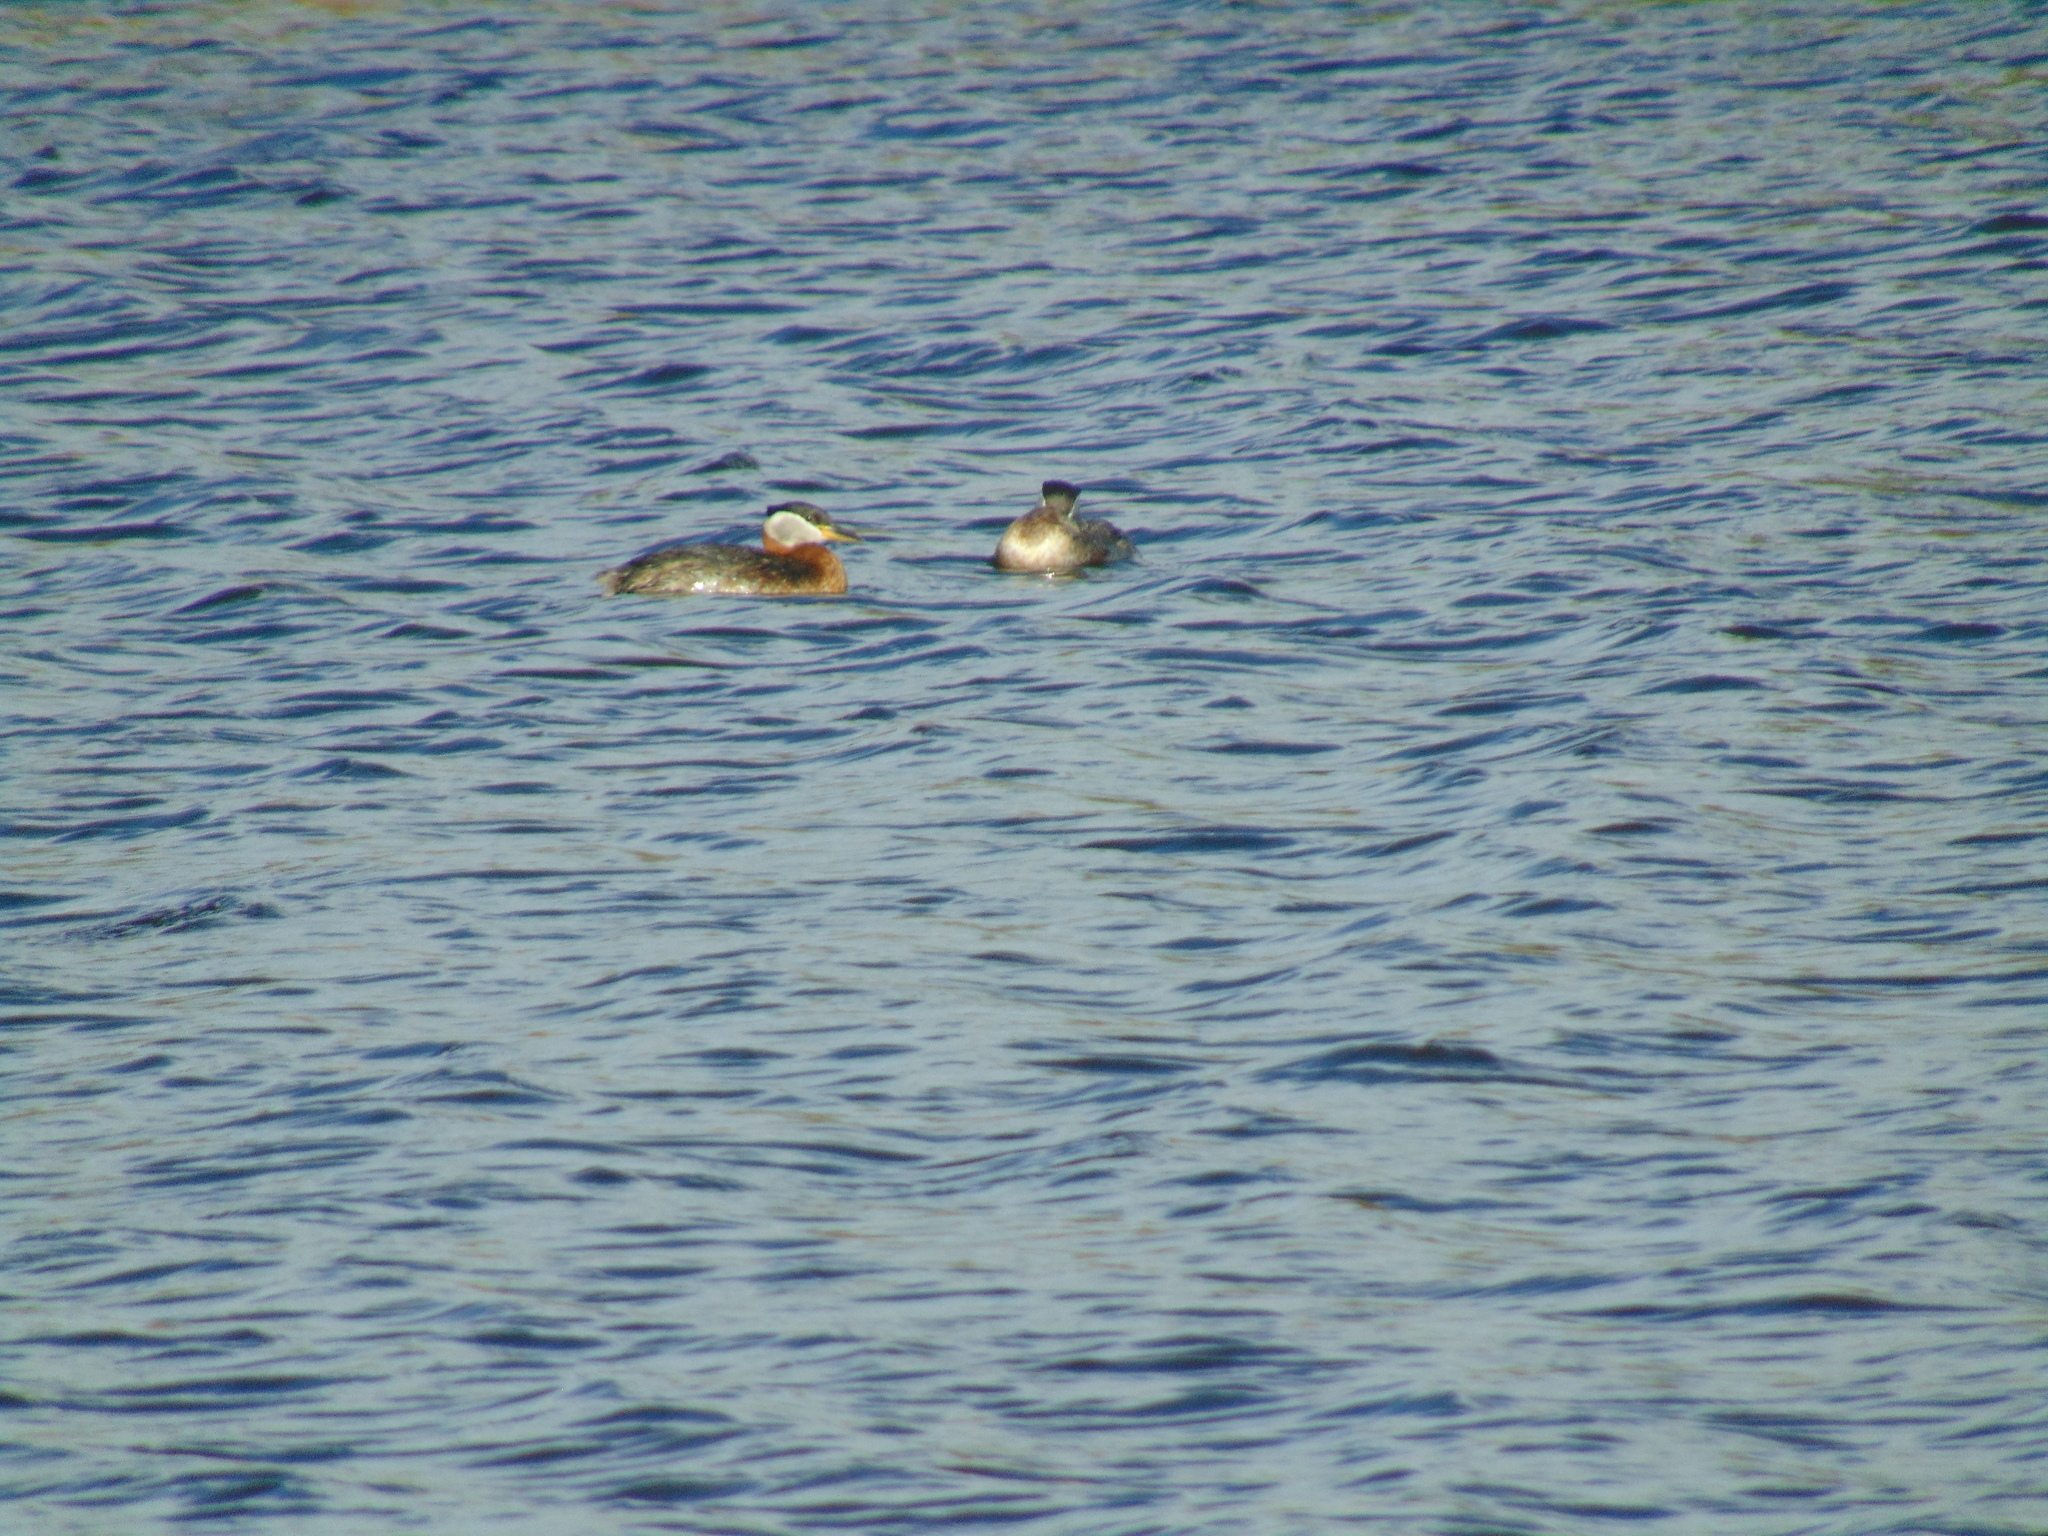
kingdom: Animalia
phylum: Chordata
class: Aves
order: Podicipediformes
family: Podicipedidae
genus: Podiceps
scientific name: Podiceps grisegena
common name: Red-necked grebe
